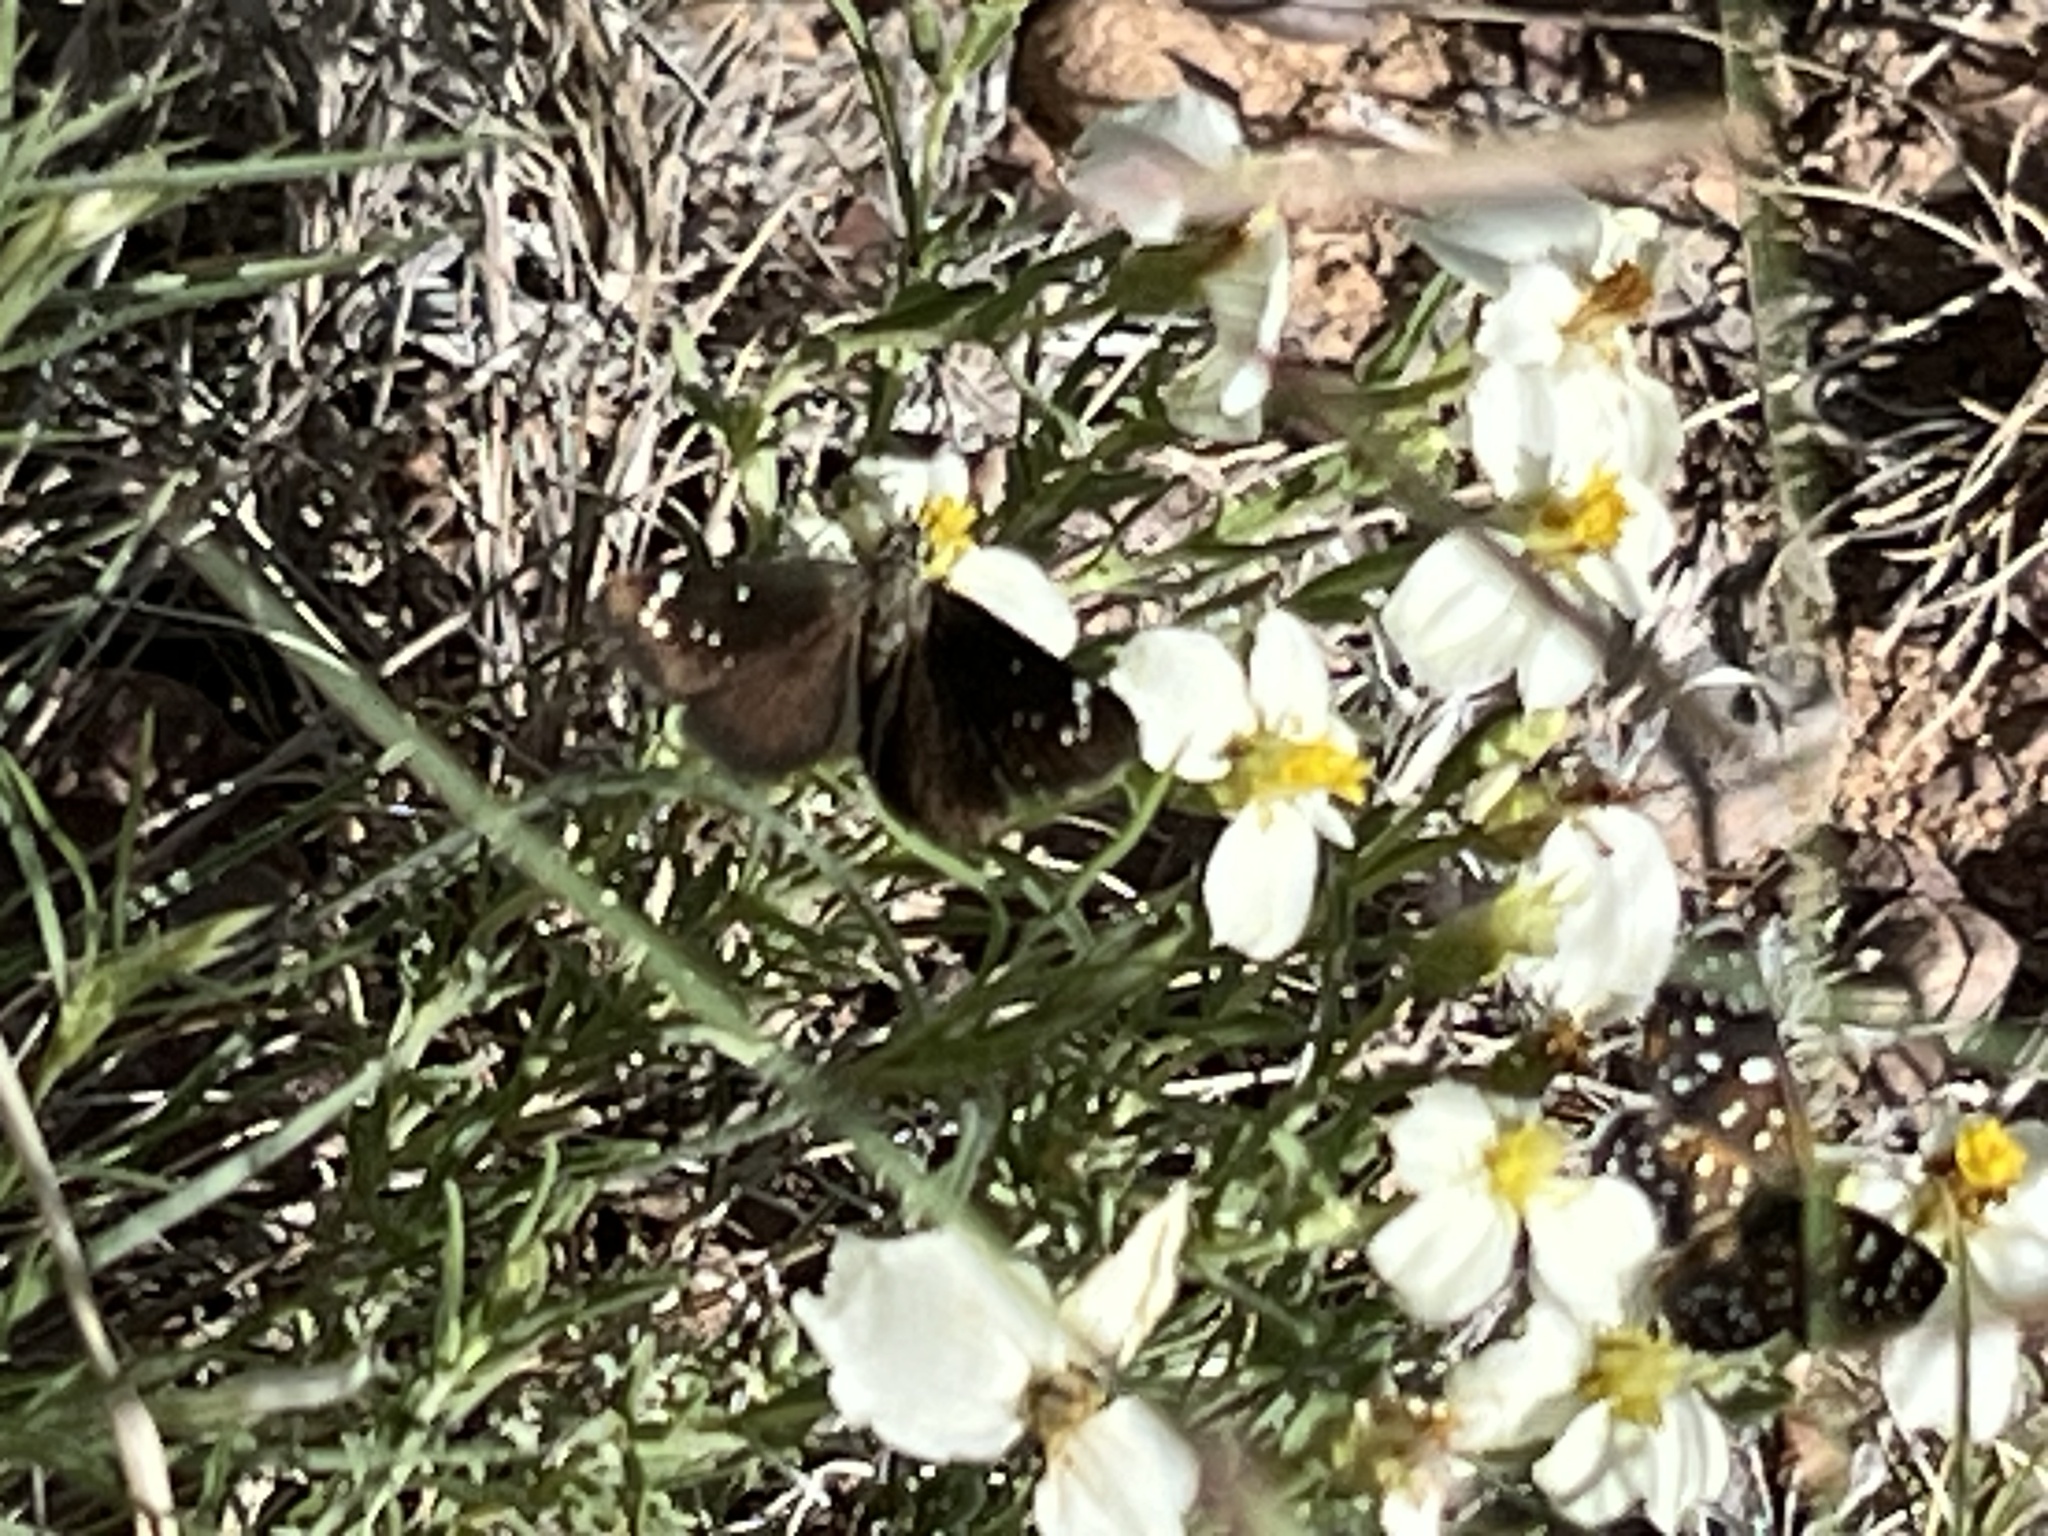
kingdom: Animalia
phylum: Arthropoda
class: Insecta
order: Lepidoptera
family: Hesperiidae
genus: Pholisora
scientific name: Pholisora catullus
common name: Common sootywing
